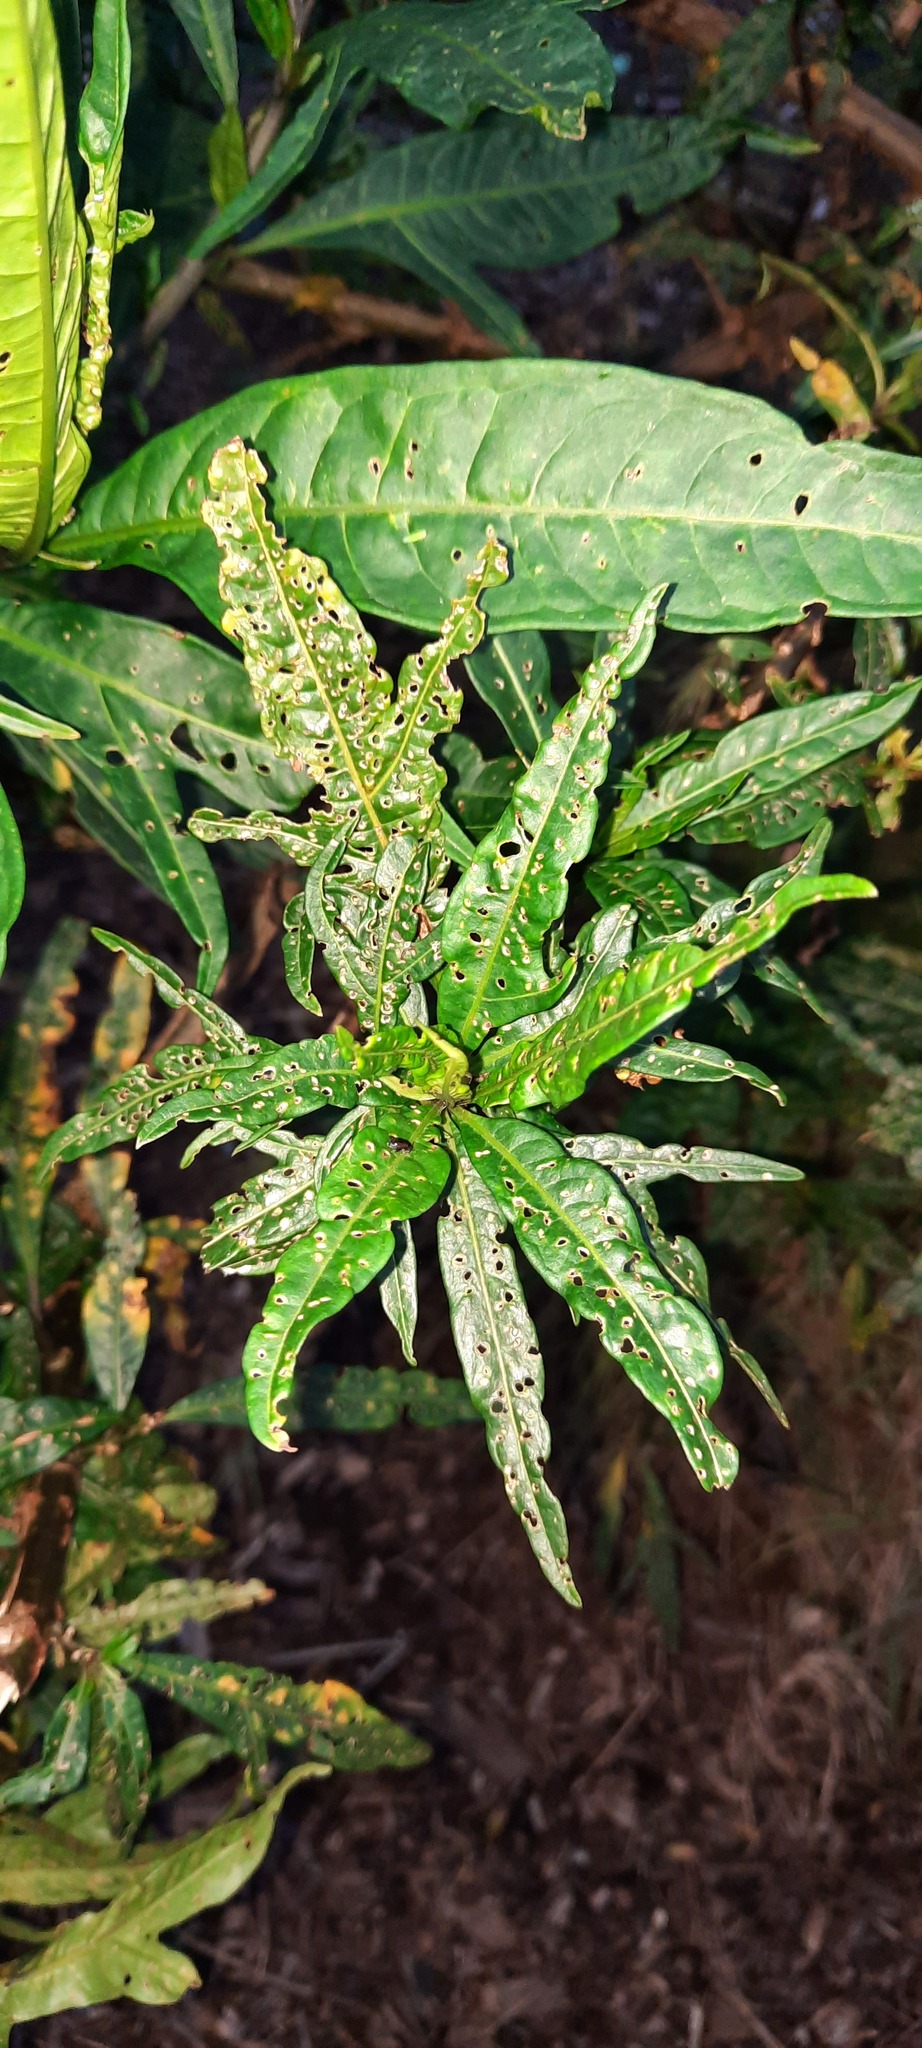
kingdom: Plantae
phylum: Tracheophyta
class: Magnoliopsida
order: Solanales
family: Solanaceae
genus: Solanum
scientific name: Solanum
